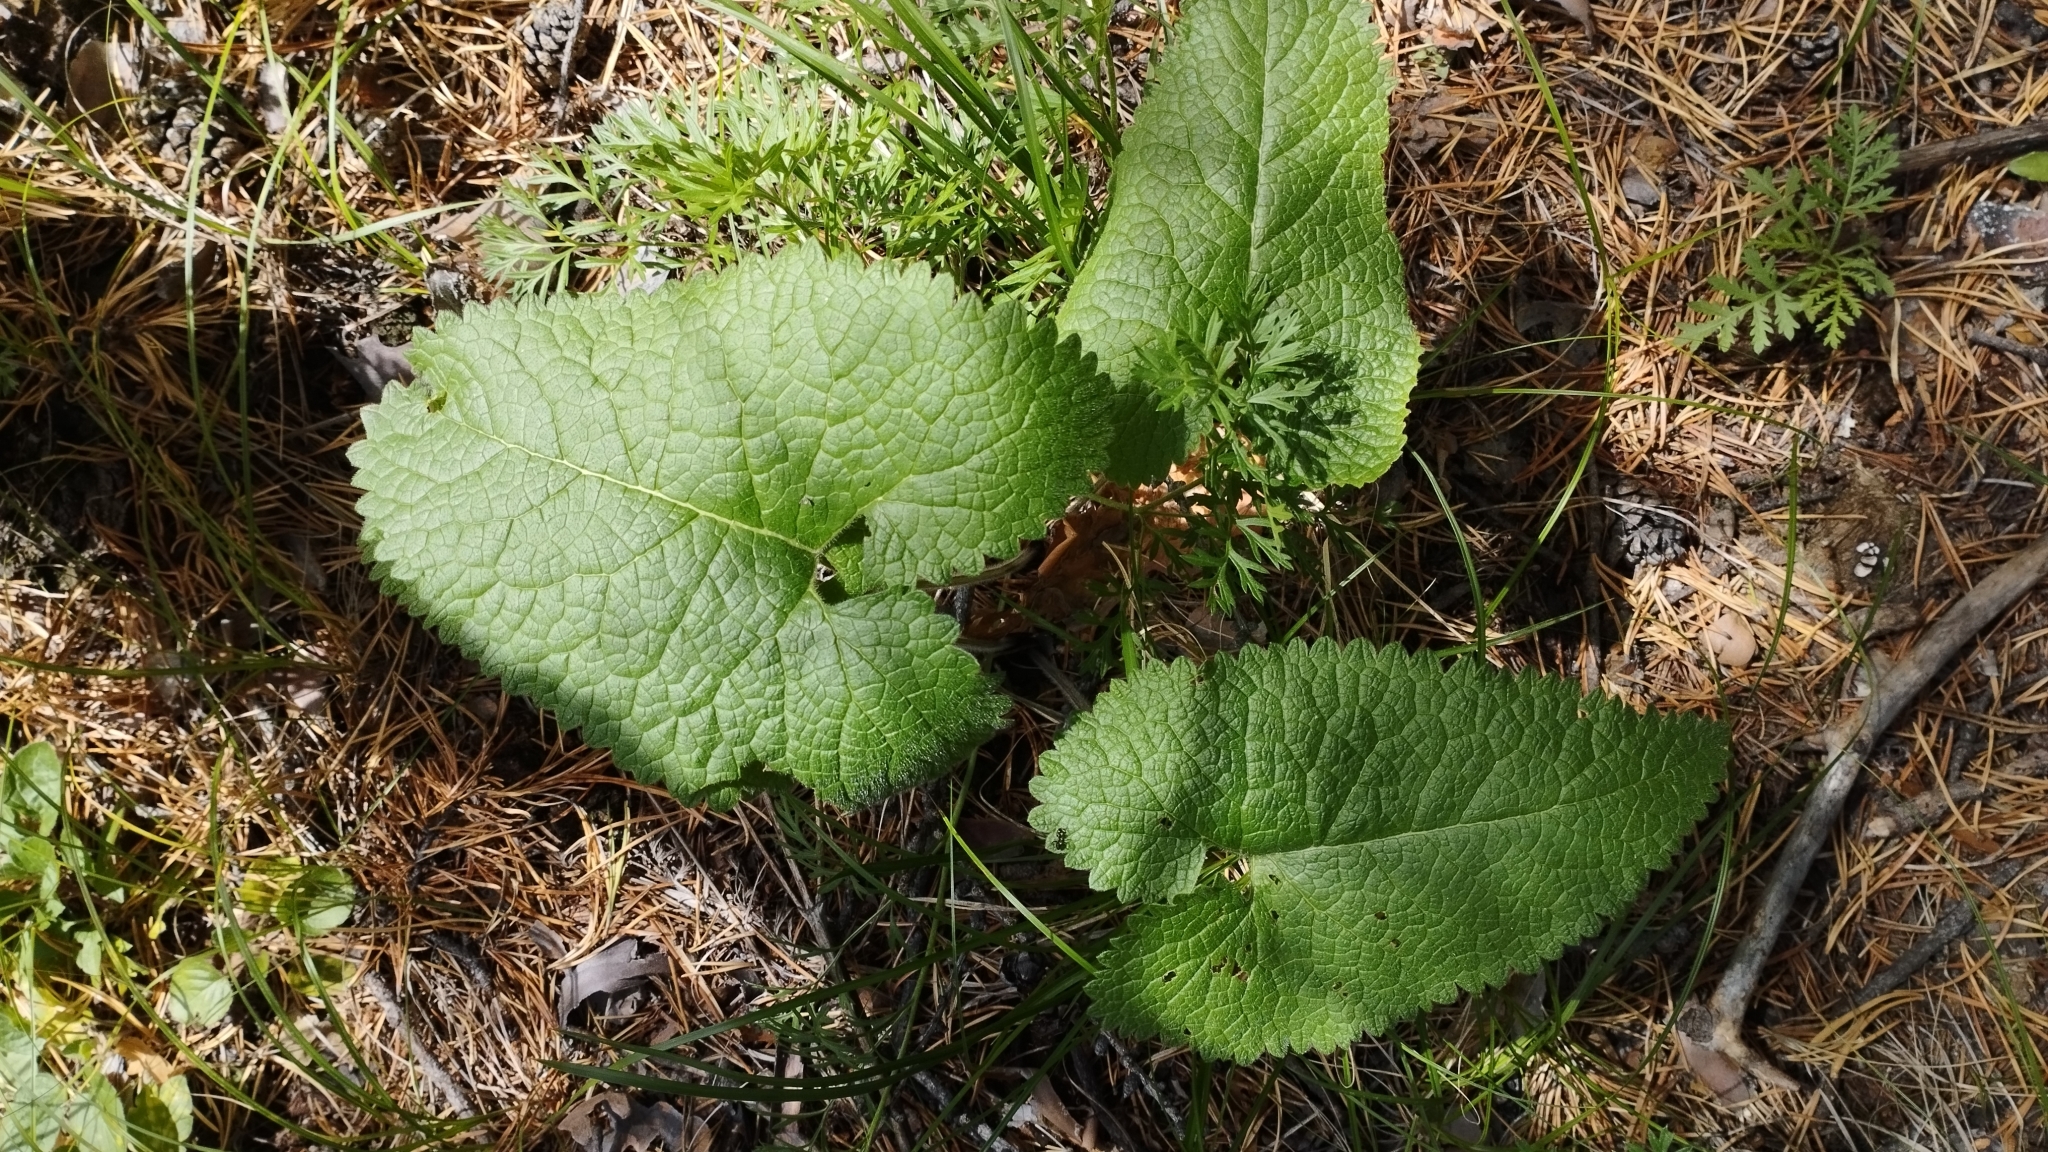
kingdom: Plantae
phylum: Tracheophyta
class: Magnoliopsida
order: Lamiales
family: Lamiaceae
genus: Phlomoides
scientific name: Phlomoides tuberosa
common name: Tuberous jerusalem sage
